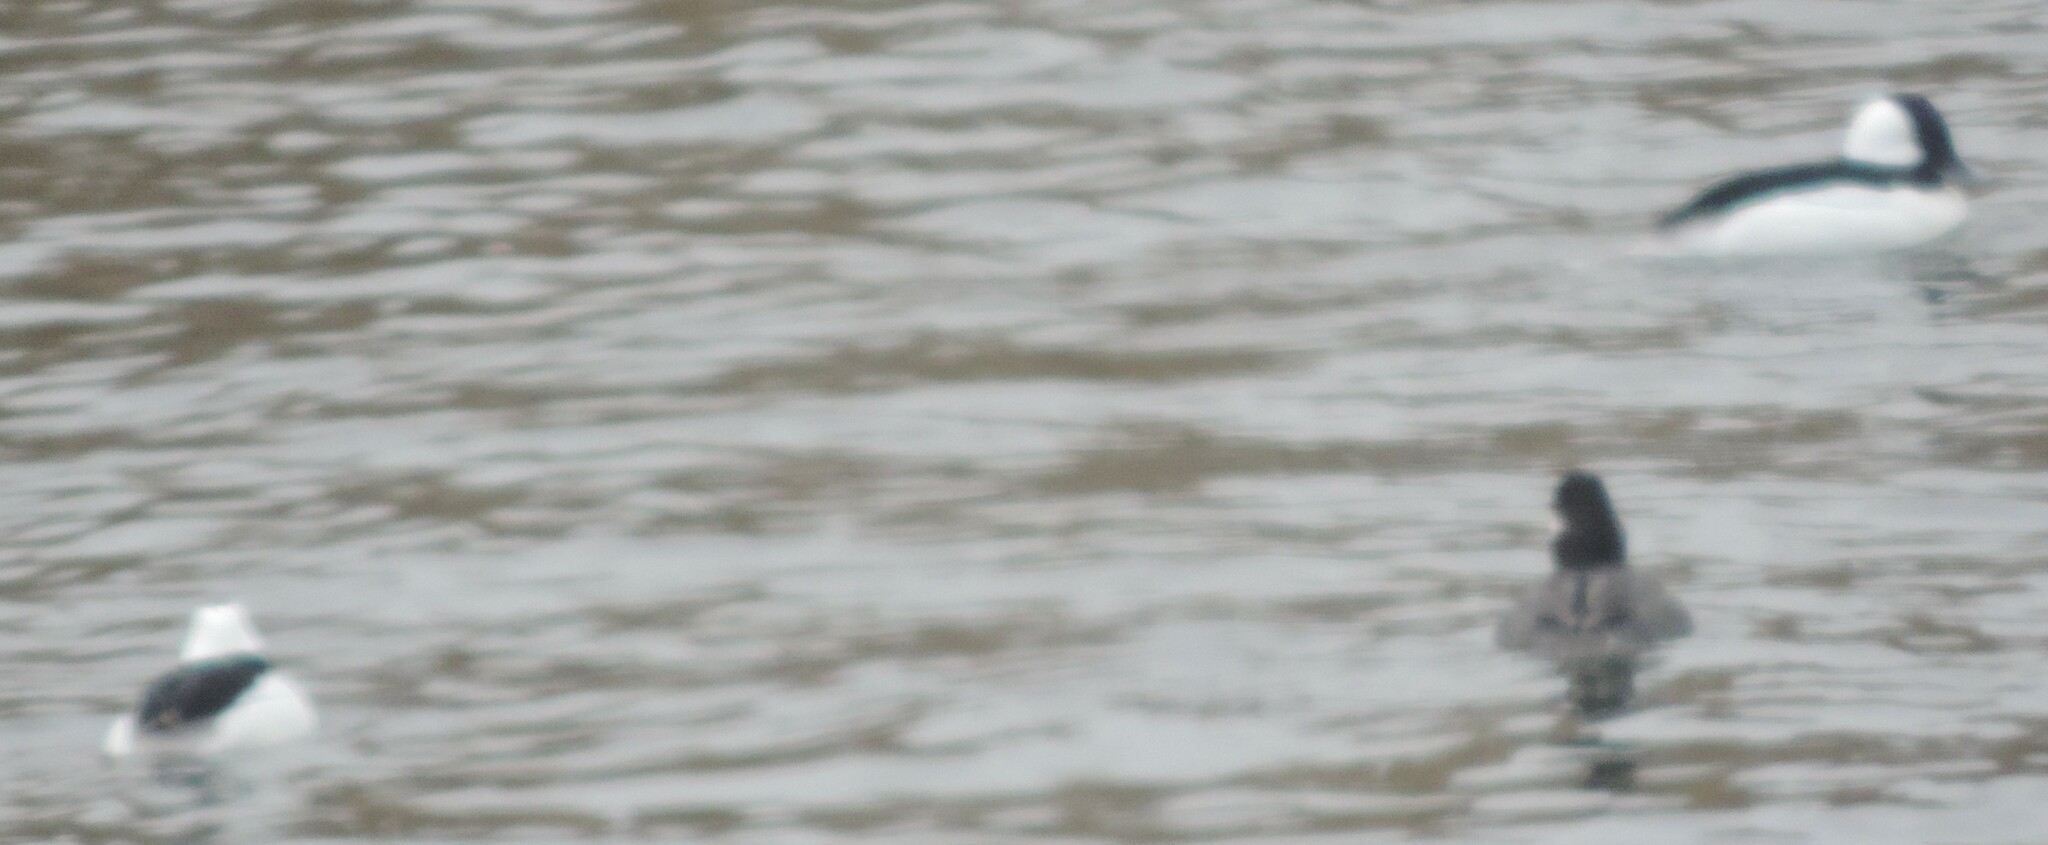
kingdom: Animalia
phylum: Chordata
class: Aves
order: Anseriformes
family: Anatidae
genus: Bucephala
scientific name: Bucephala albeola
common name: Bufflehead
